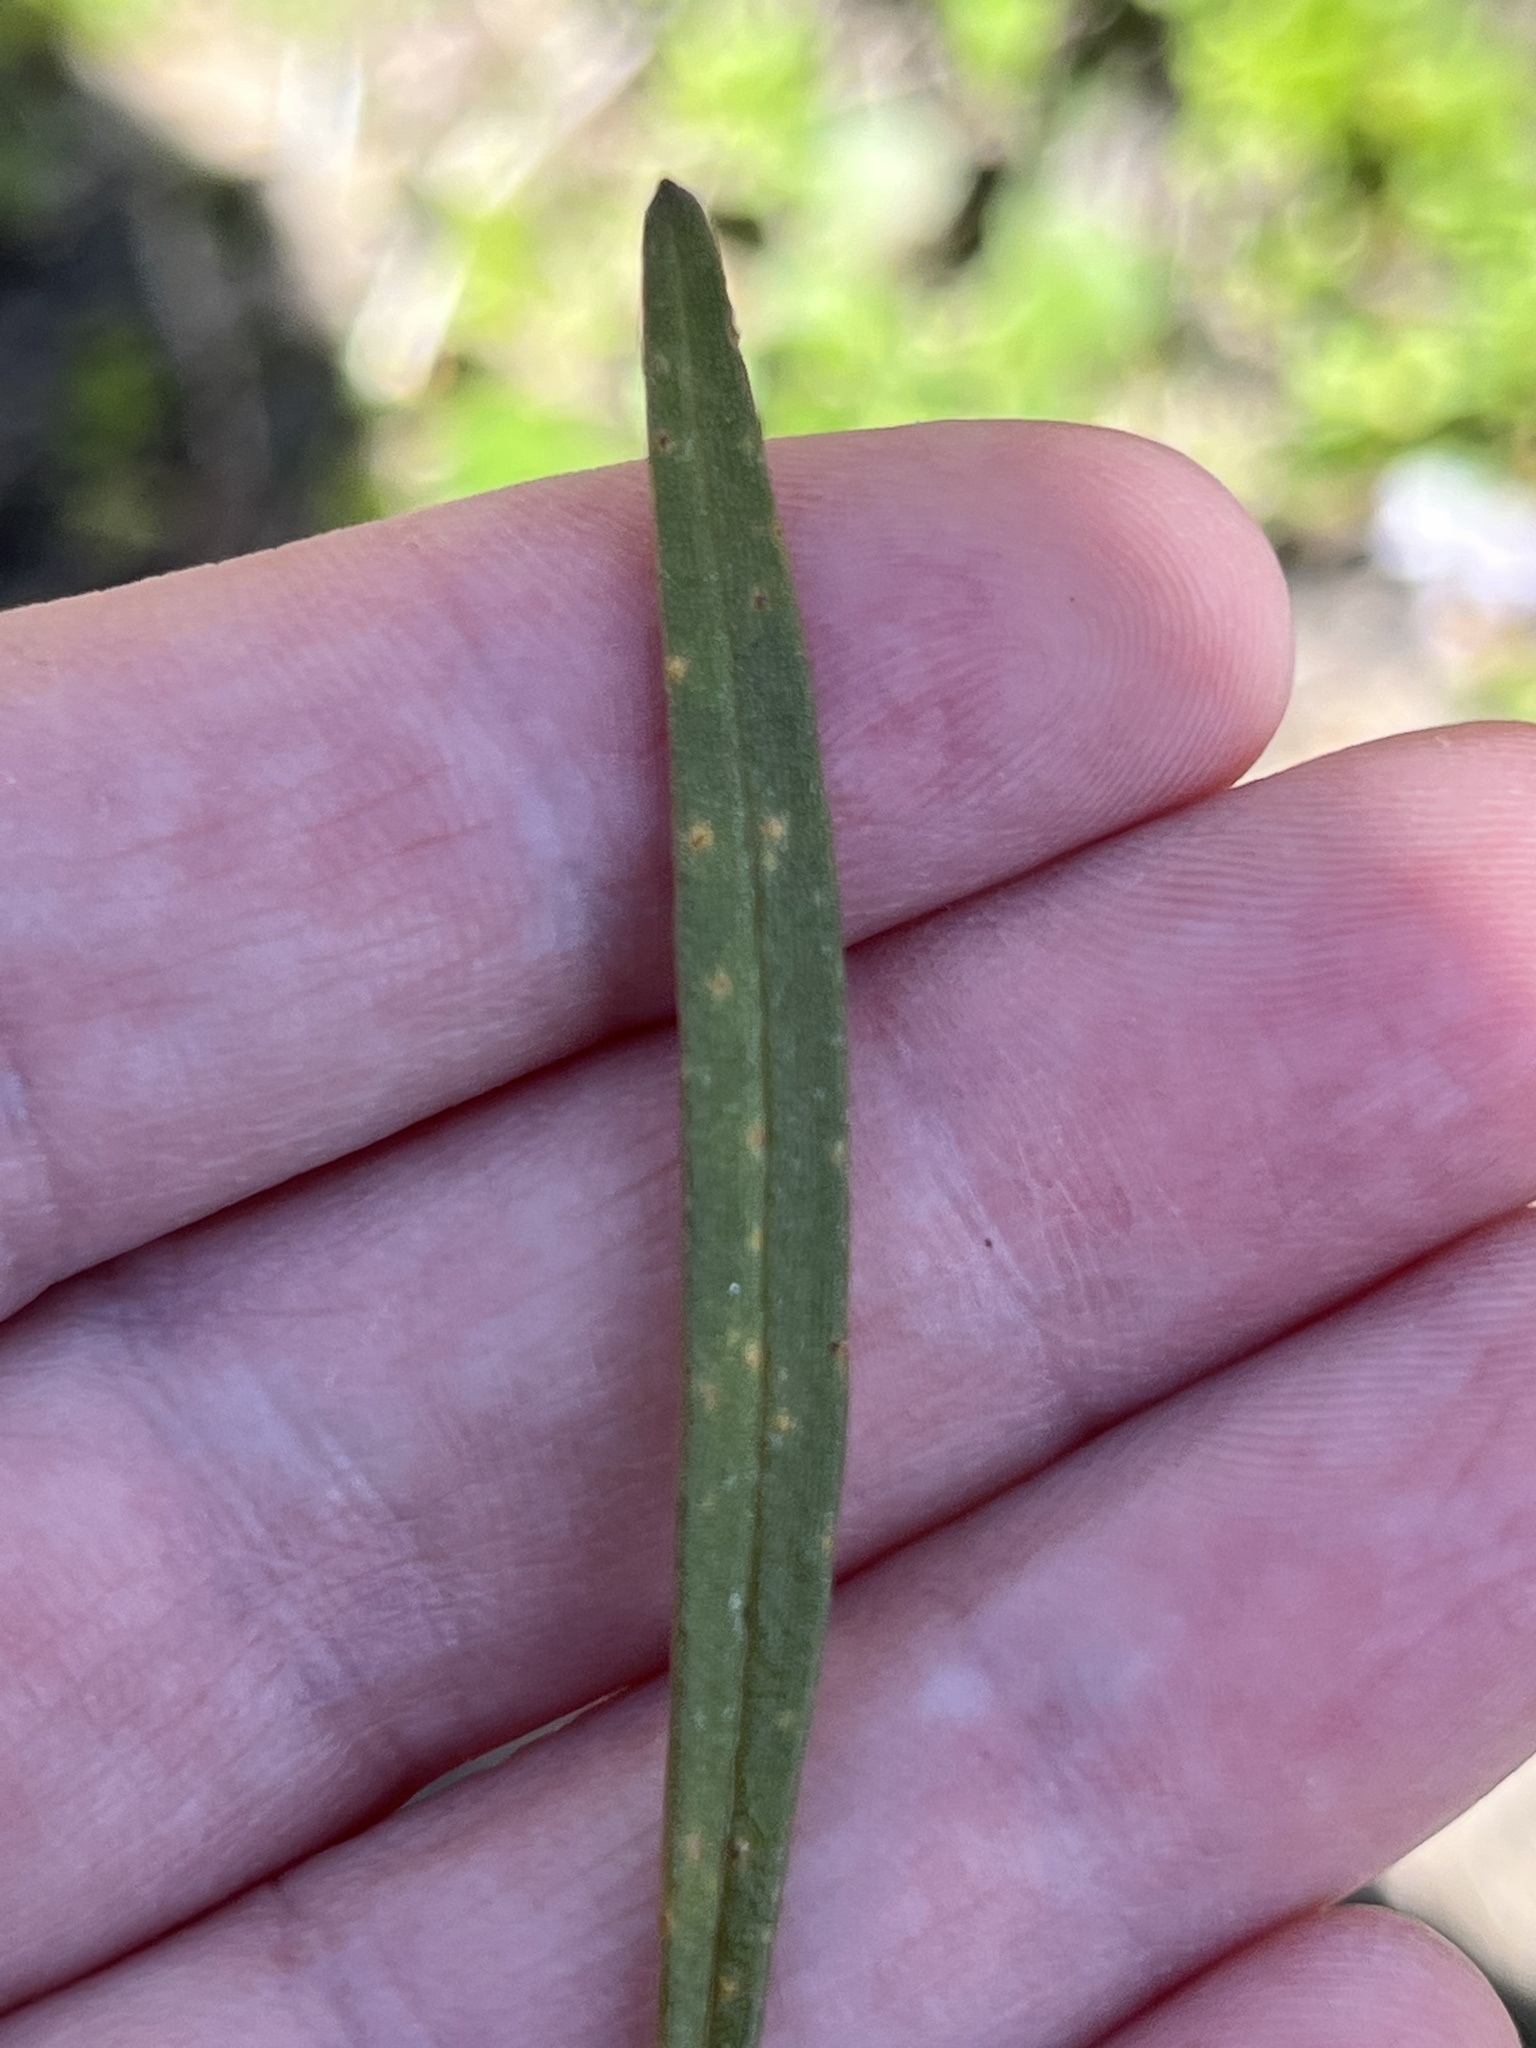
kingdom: Fungi
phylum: Basidiomycota
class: Pucciniomycetes
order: Pucciniales
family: Pucciniaceae
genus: Puccinia
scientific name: Puccinia mariae-wilsoniae
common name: Spring beauty rust
